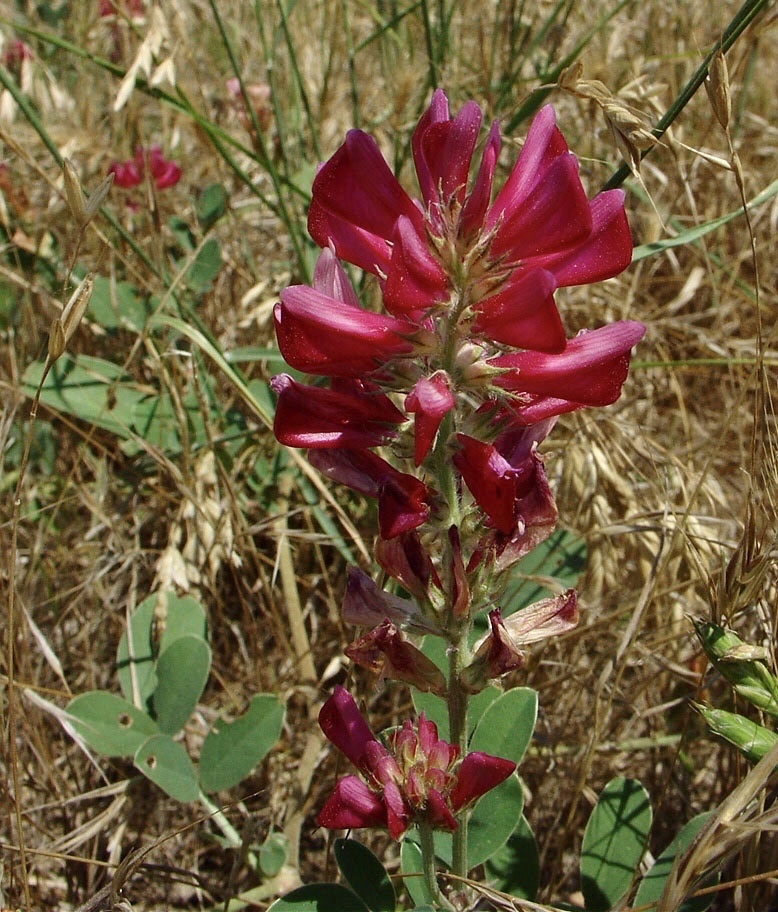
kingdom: Plantae
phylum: Tracheophyta
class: Magnoliopsida
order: Fabales
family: Fabaceae
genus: Sulla
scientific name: Sulla coronaria
